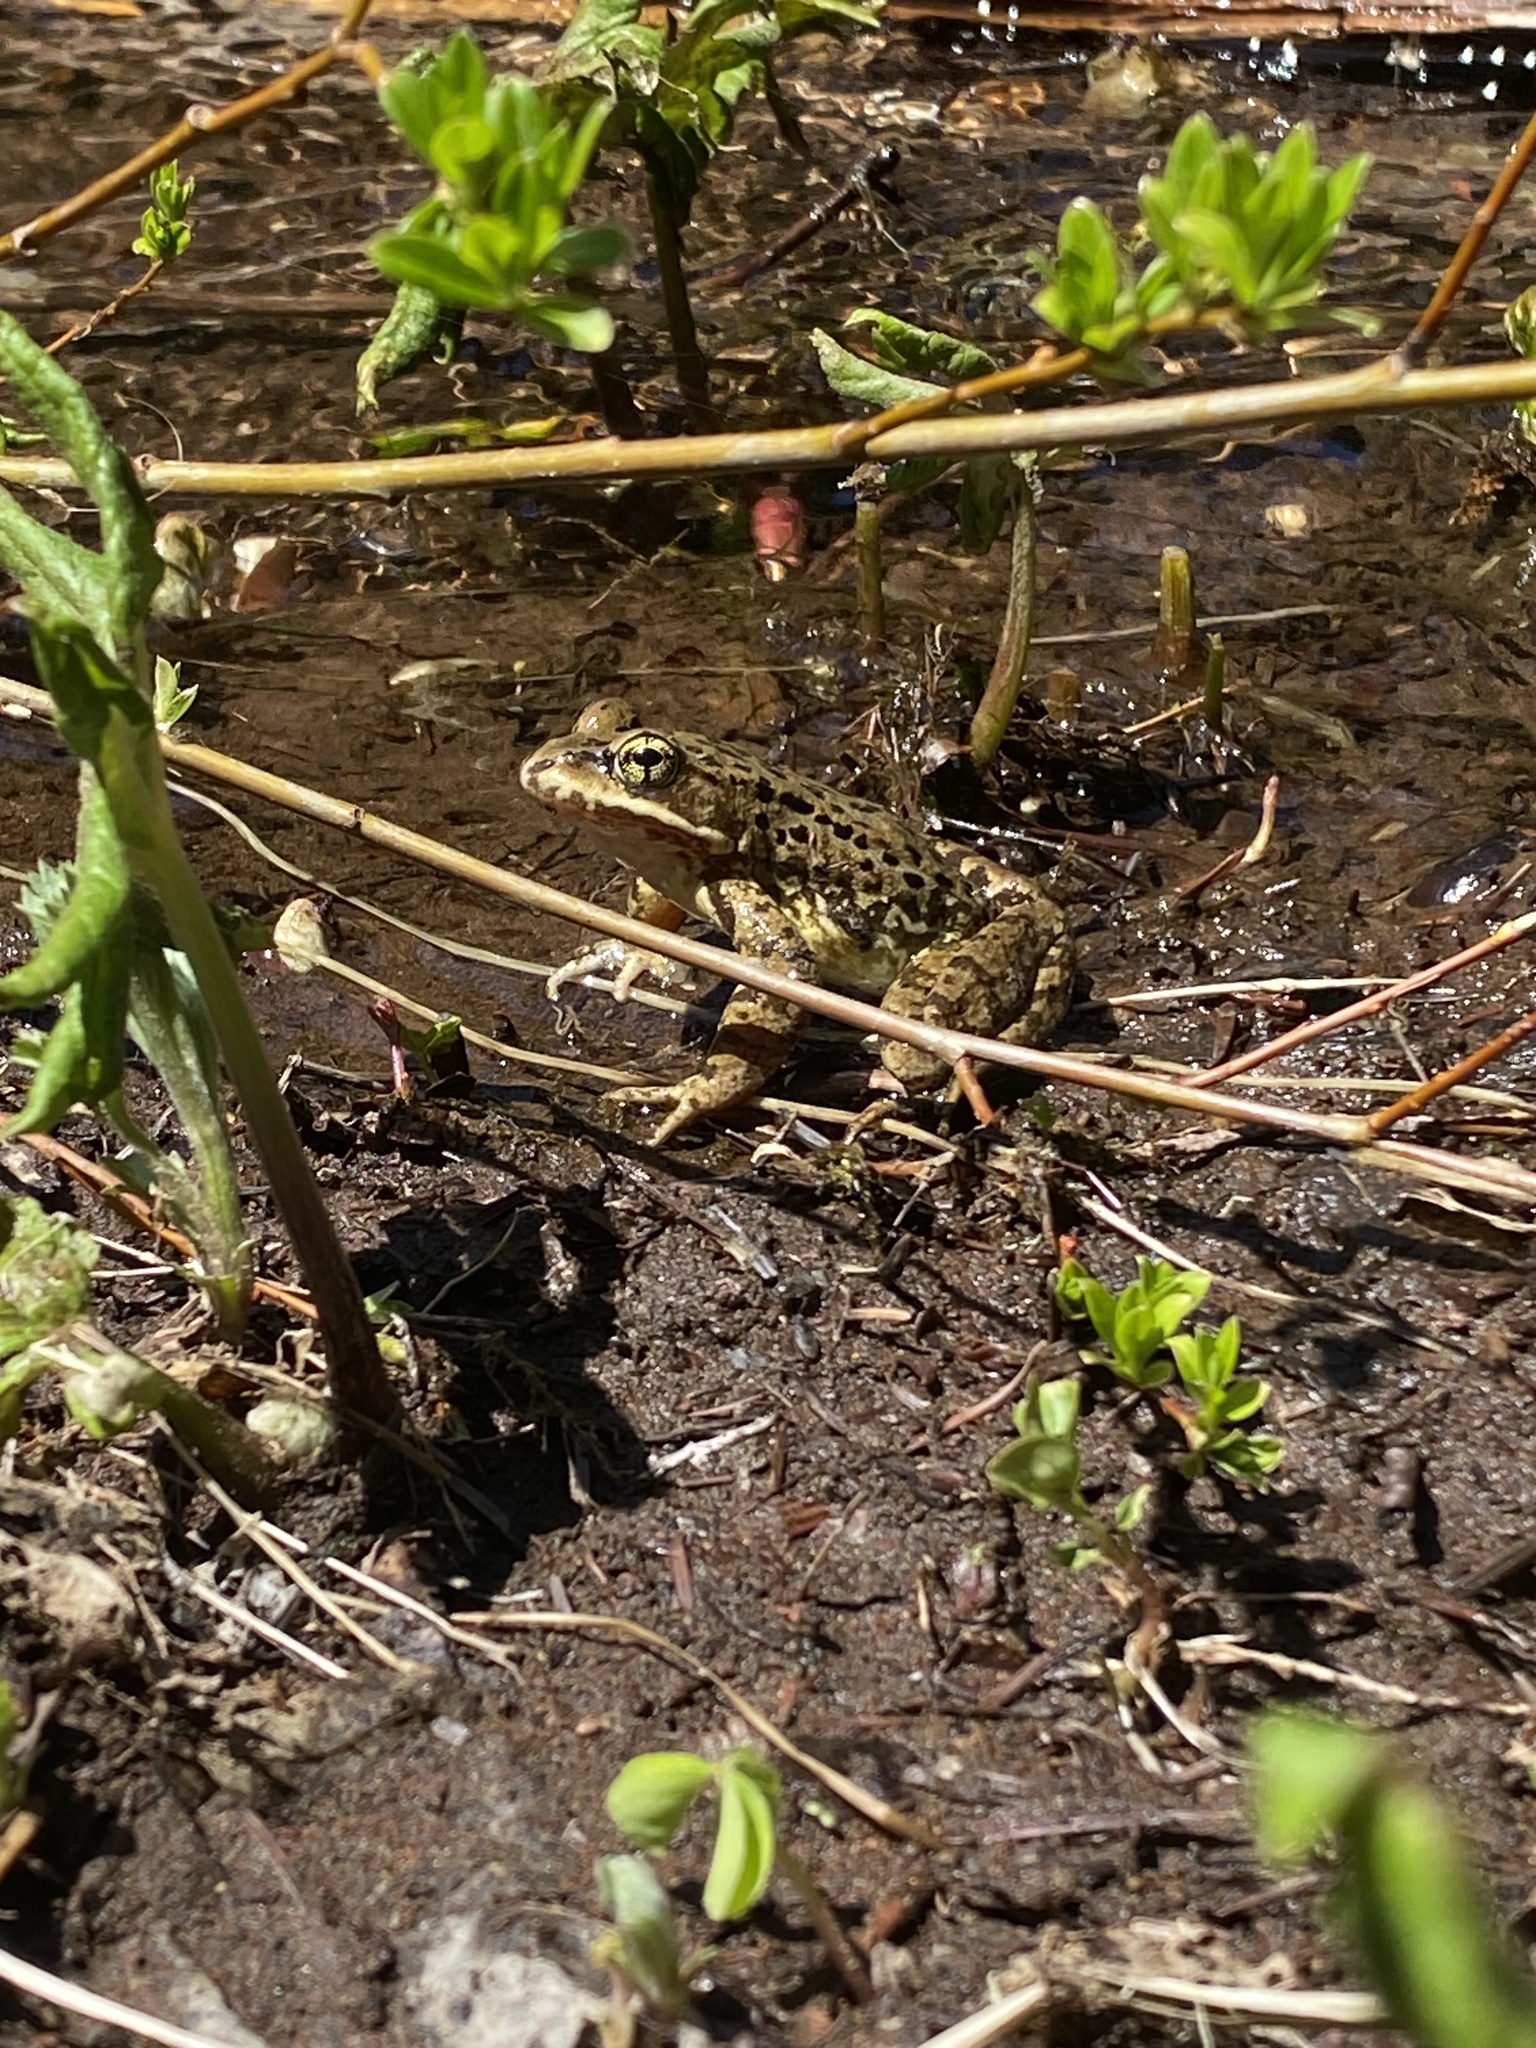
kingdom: Animalia
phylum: Chordata
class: Amphibia
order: Anura
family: Ranidae
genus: Rana
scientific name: Rana cascadae
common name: Cascades frog
